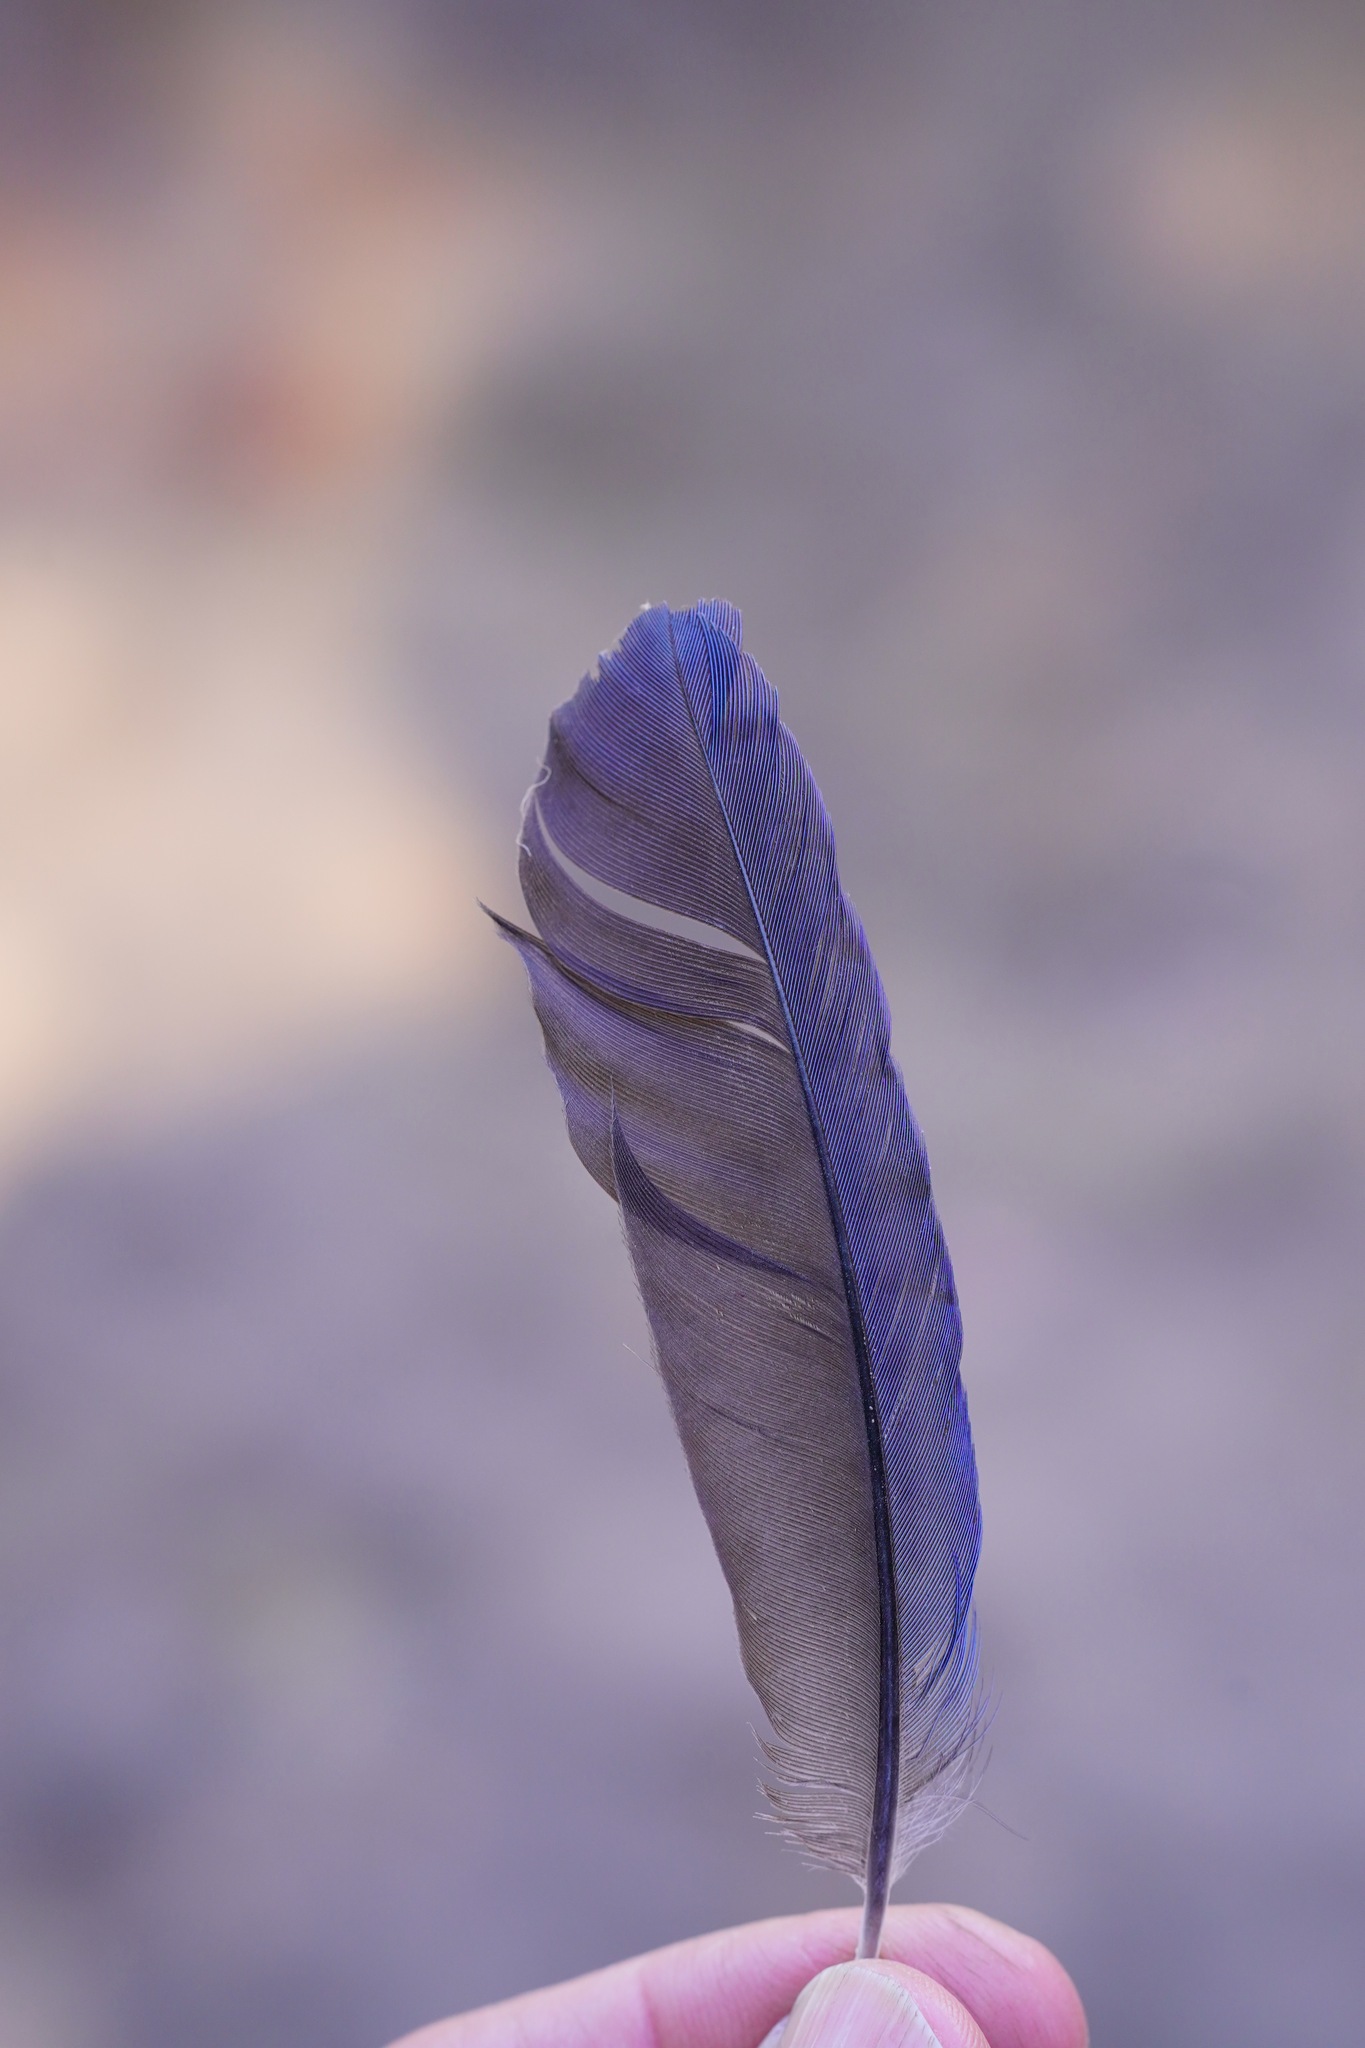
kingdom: Animalia
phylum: Chordata
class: Aves
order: Passeriformes
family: Corvidae
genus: Cyanocitta
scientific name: Cyanocitta stelleri
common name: Steller's jay
